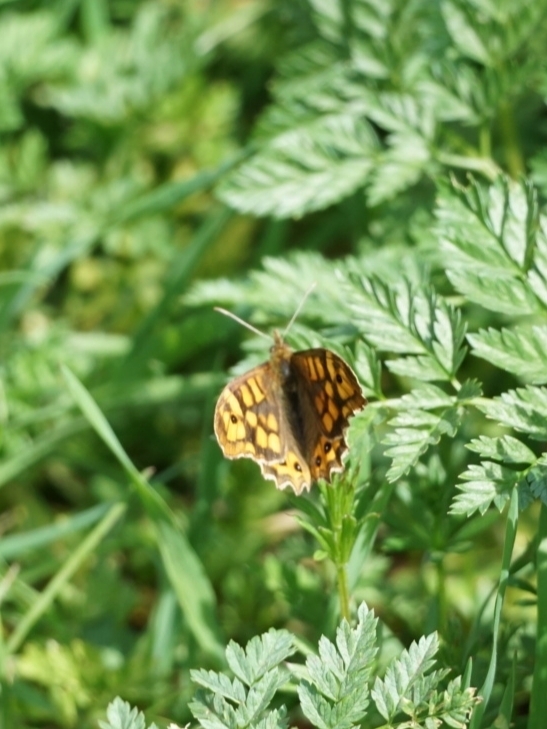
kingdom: Animalia
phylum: Arthropoda
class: Insecta
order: Lepidoptera
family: Nymphalidae
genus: Pararge
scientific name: Pararge aegeria
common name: Speckled wood
